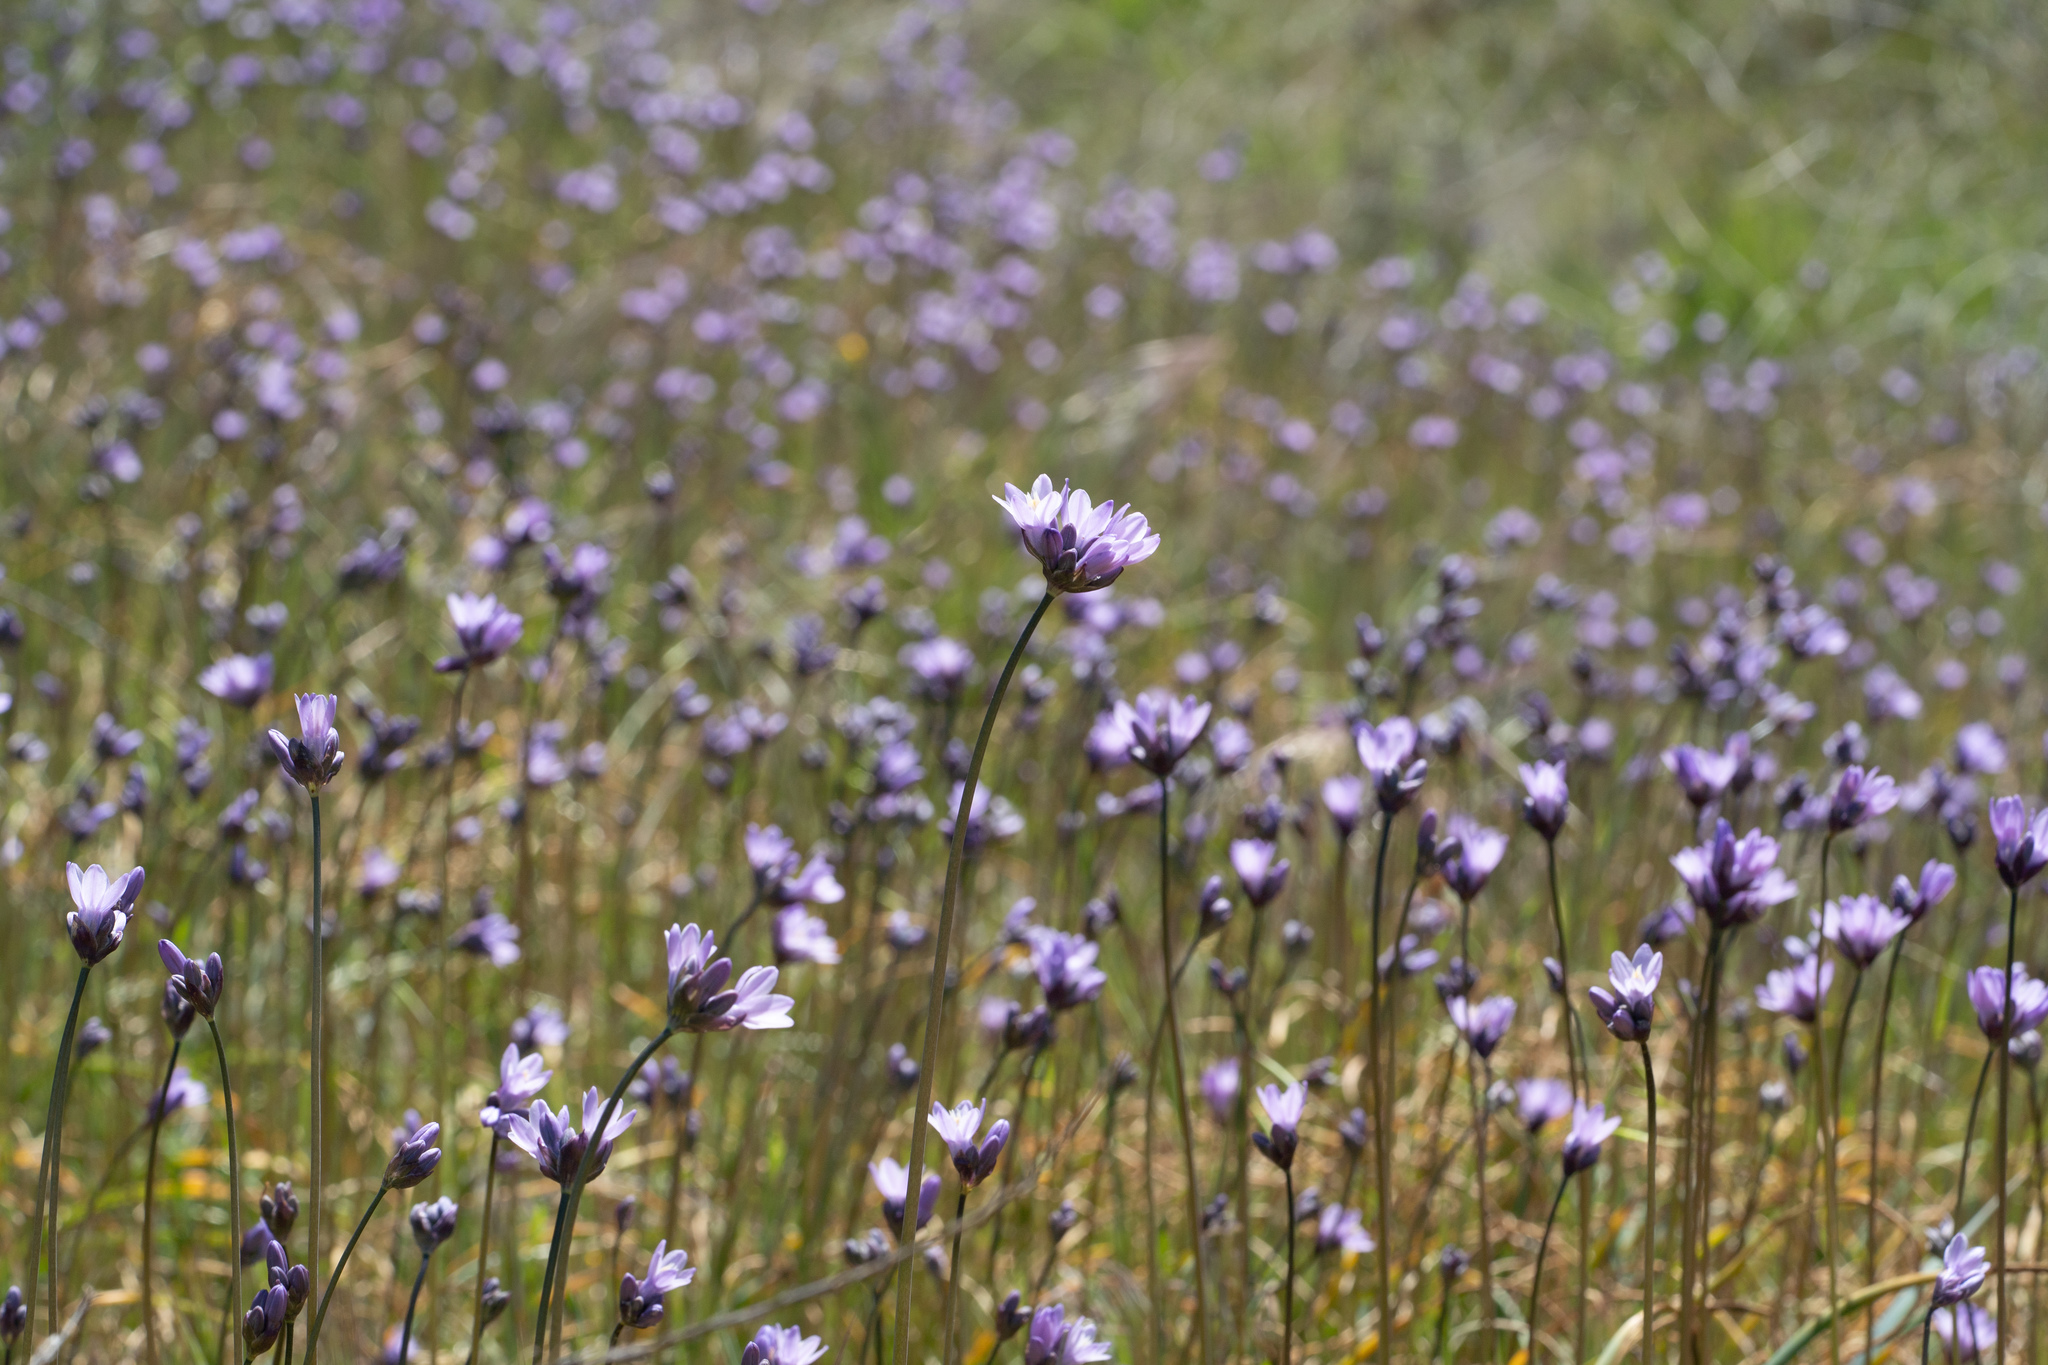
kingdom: Plantae
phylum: Tracheophyta
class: Liliopsida
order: Asparagales
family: Asparagaceae
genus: Dipterostemon
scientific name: Dipterostemon capitatus
